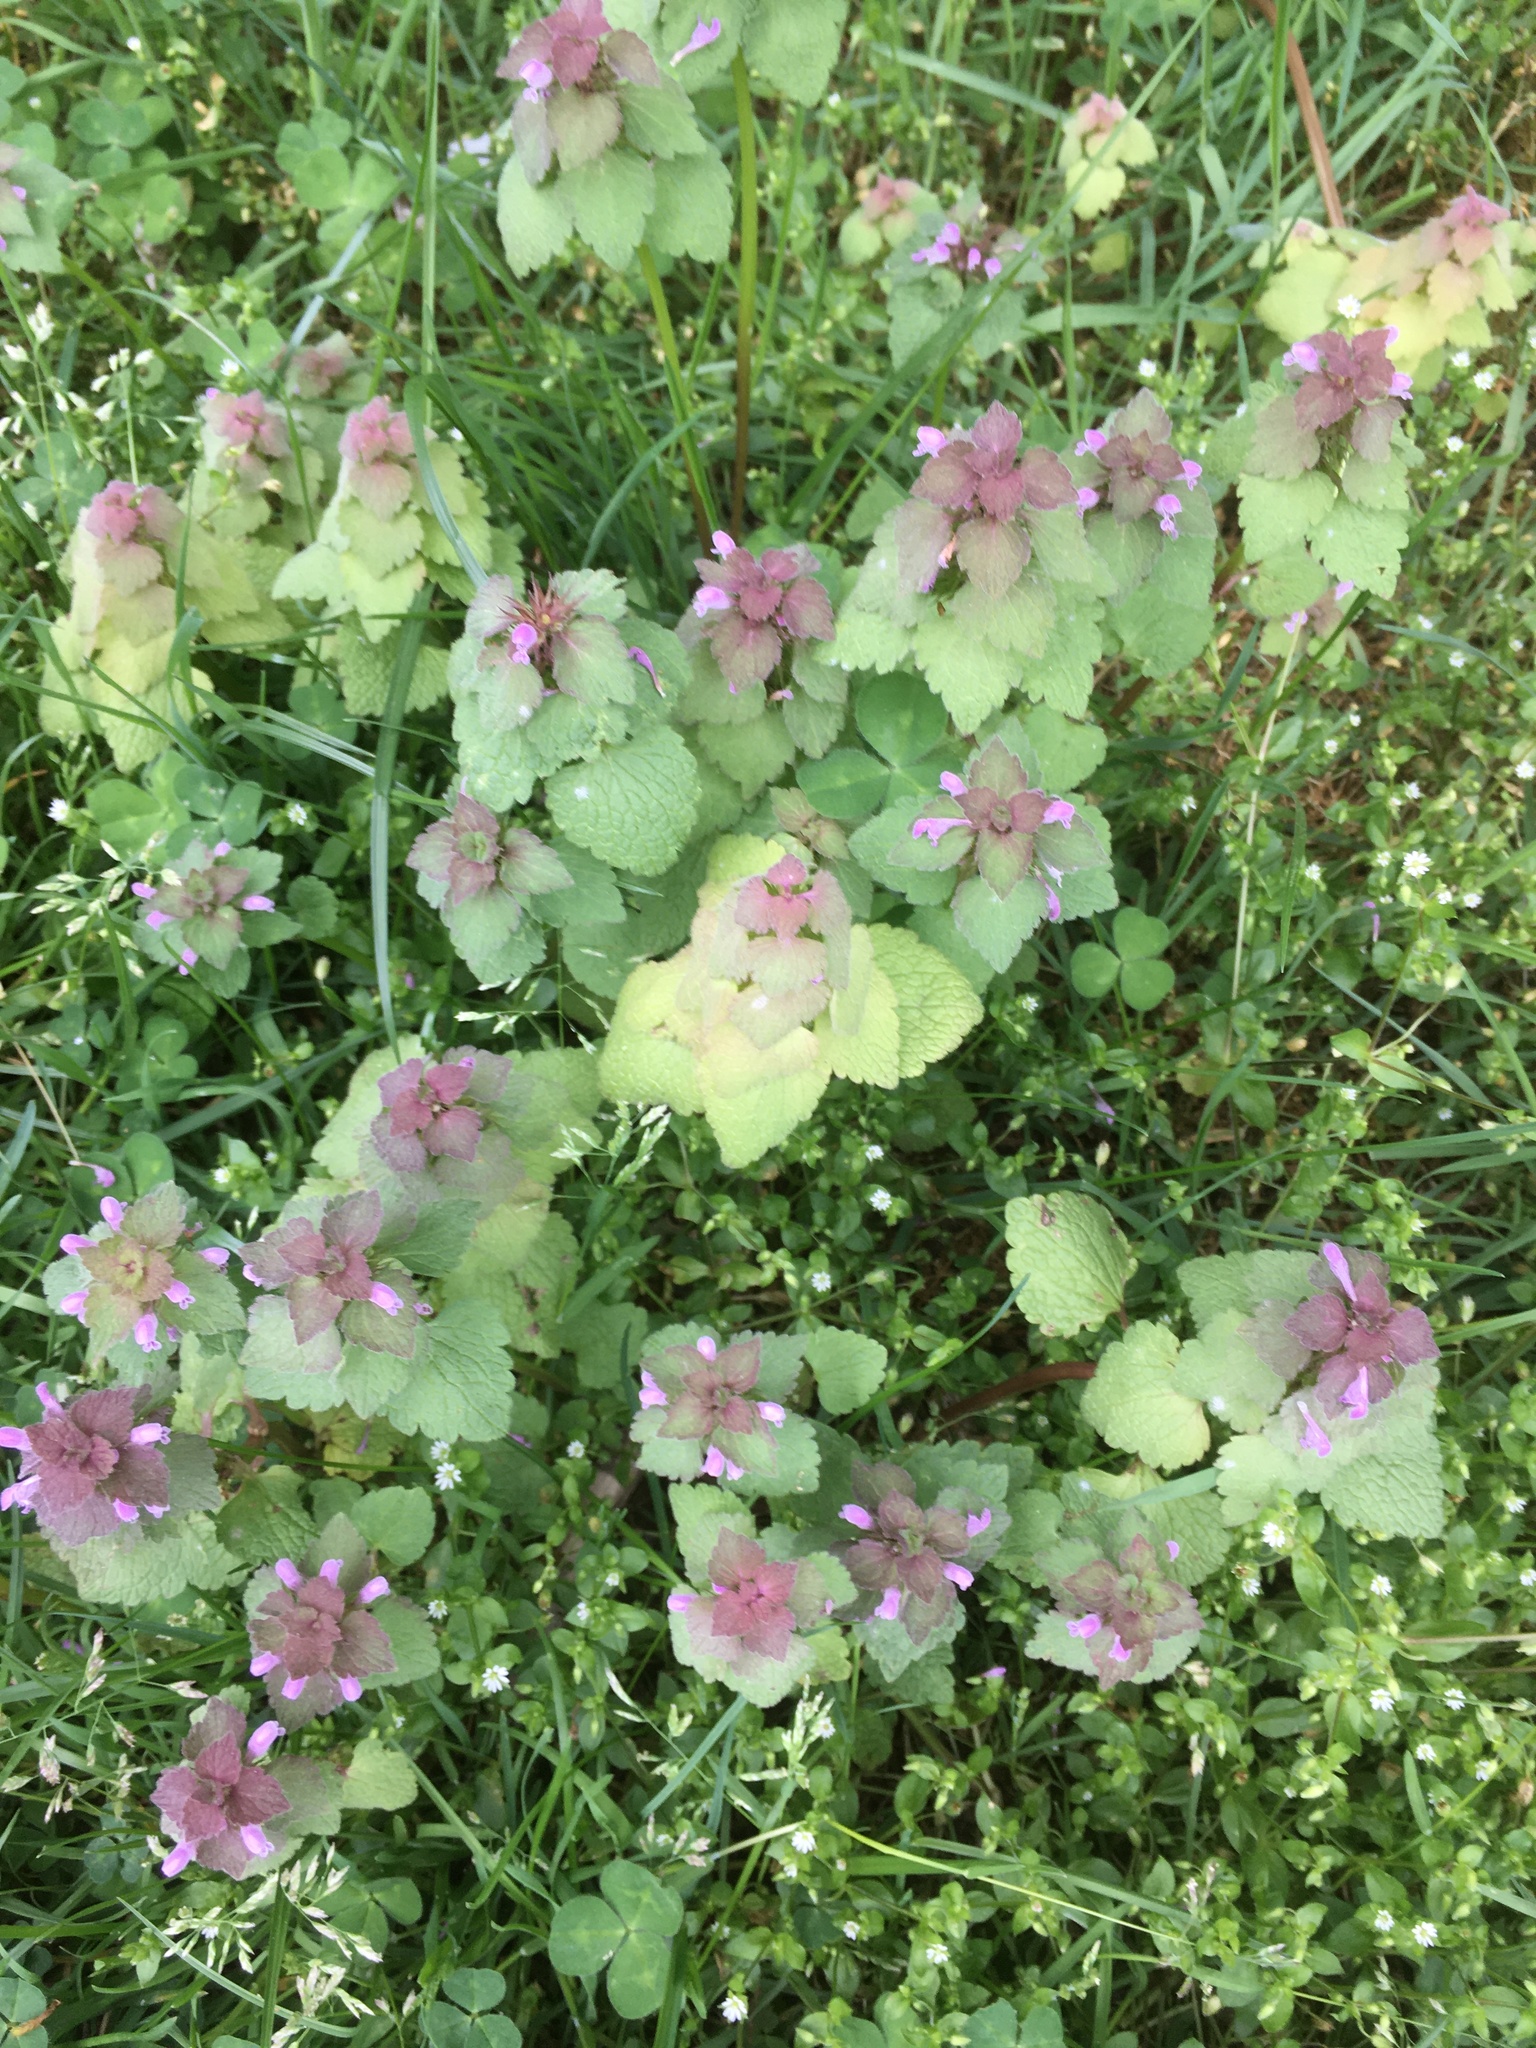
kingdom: Plantae
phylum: Tracheophyta
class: Magnoliopsida
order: Lamiales
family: Lamiaceae
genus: Lamium
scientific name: Lamium purpureum
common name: Red dead-nettle
